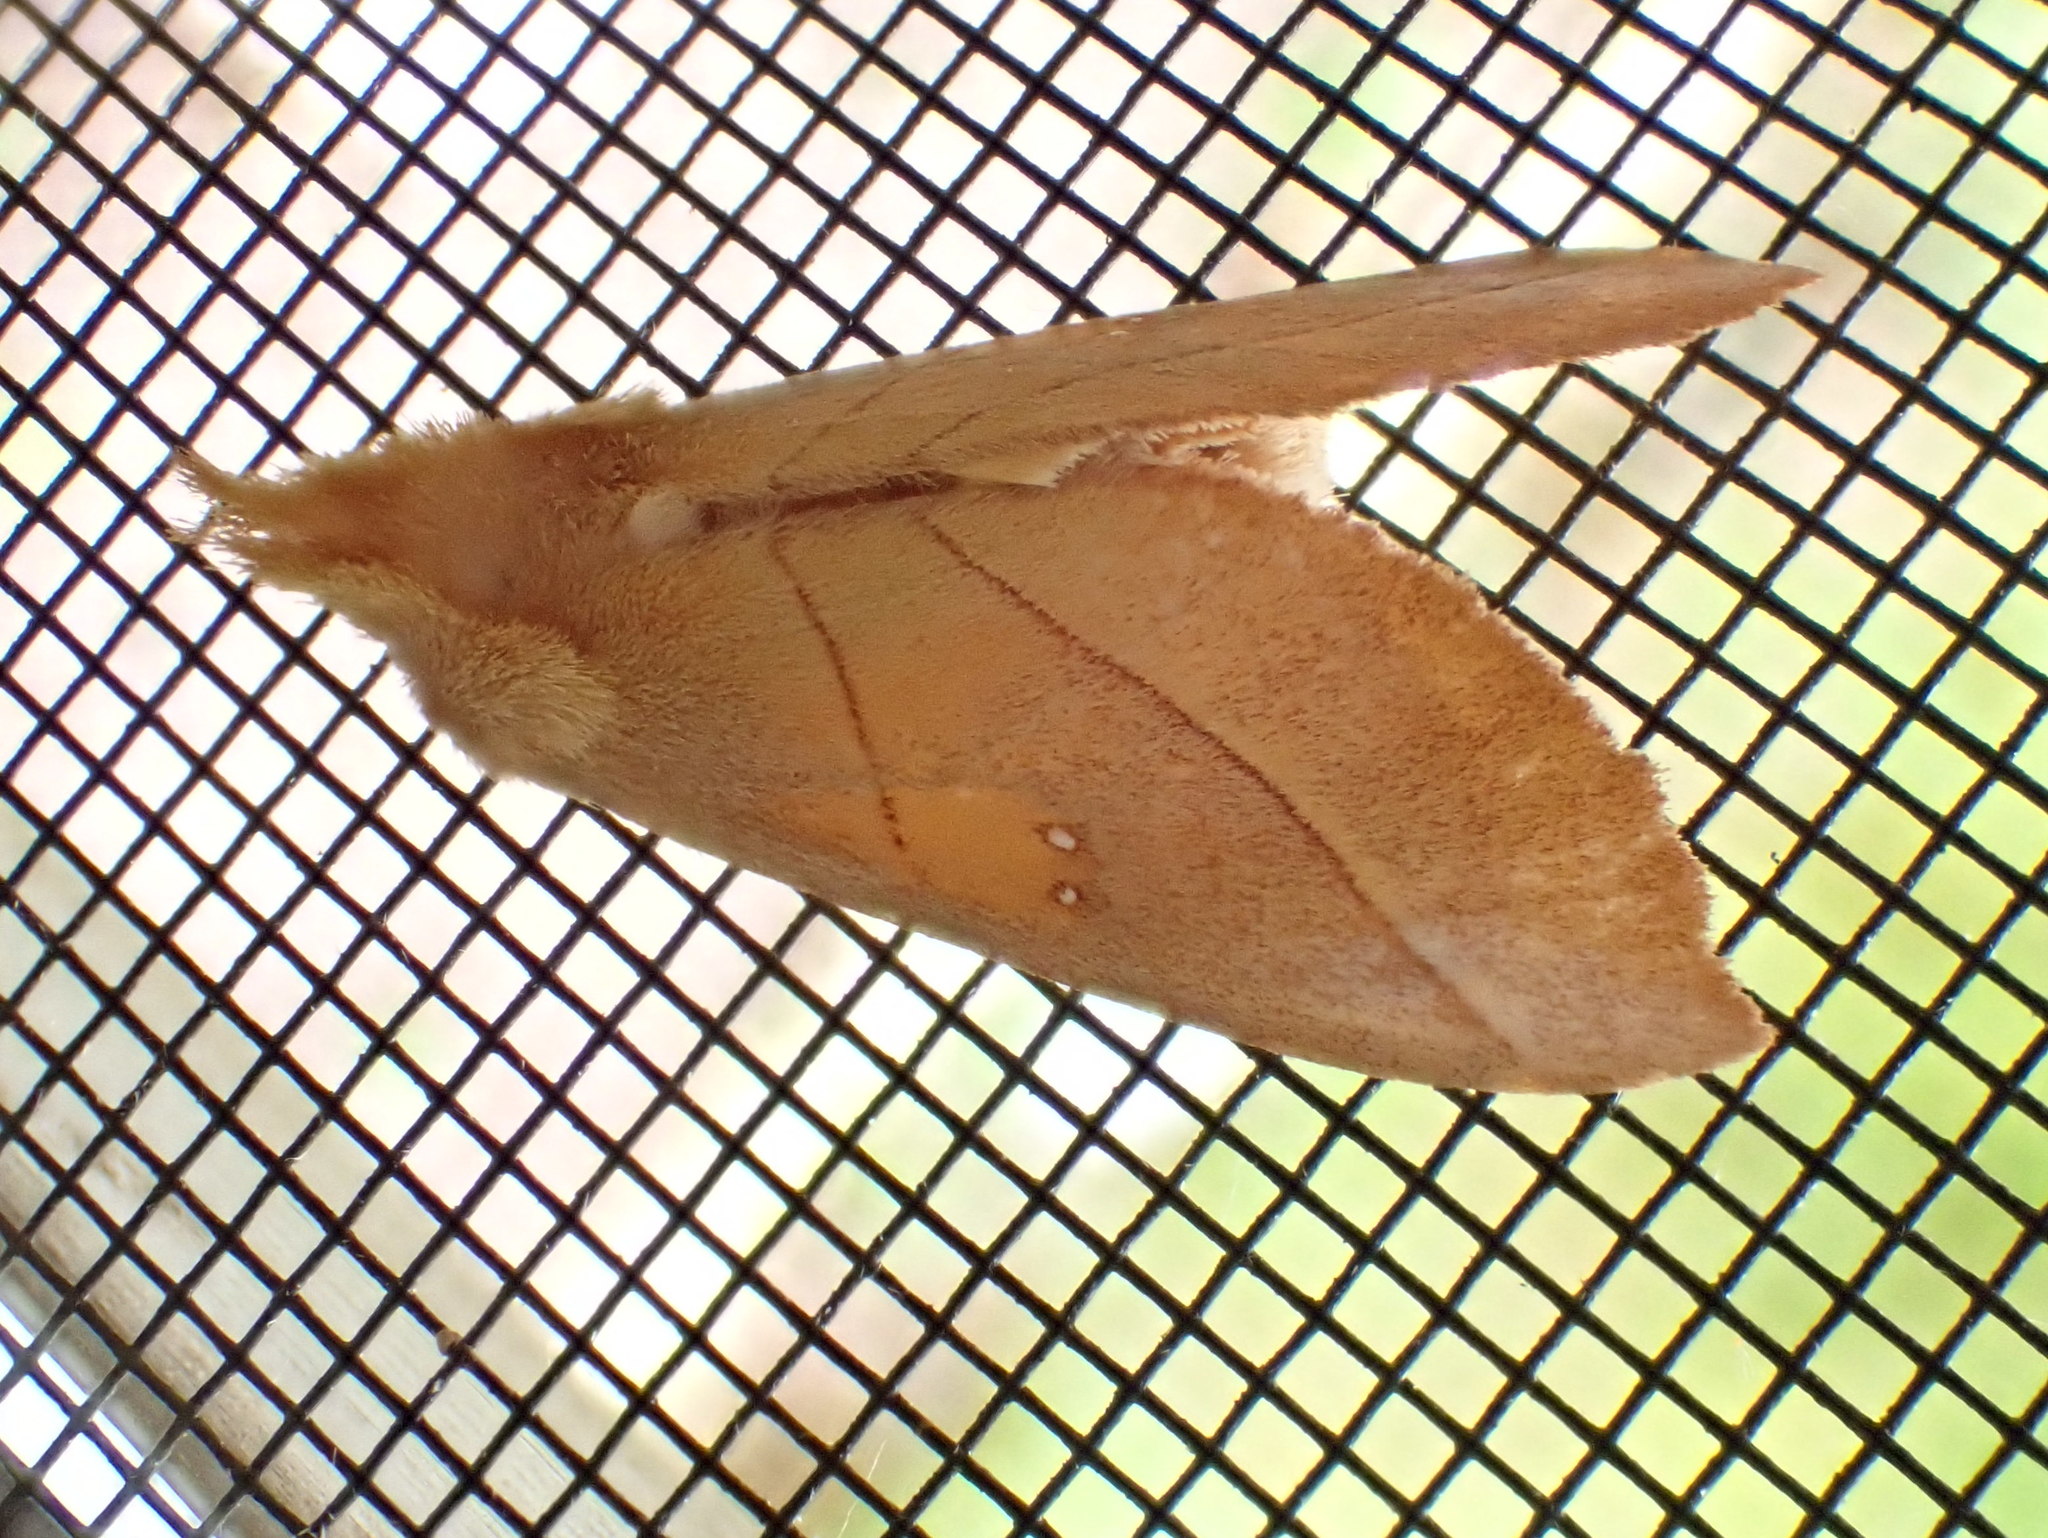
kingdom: Animalia
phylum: Arthropoda
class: Insecta
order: Lepidoptera
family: Notodontidae
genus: Nadata
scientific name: Nadata gibbosa
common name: White-dotted prominent
